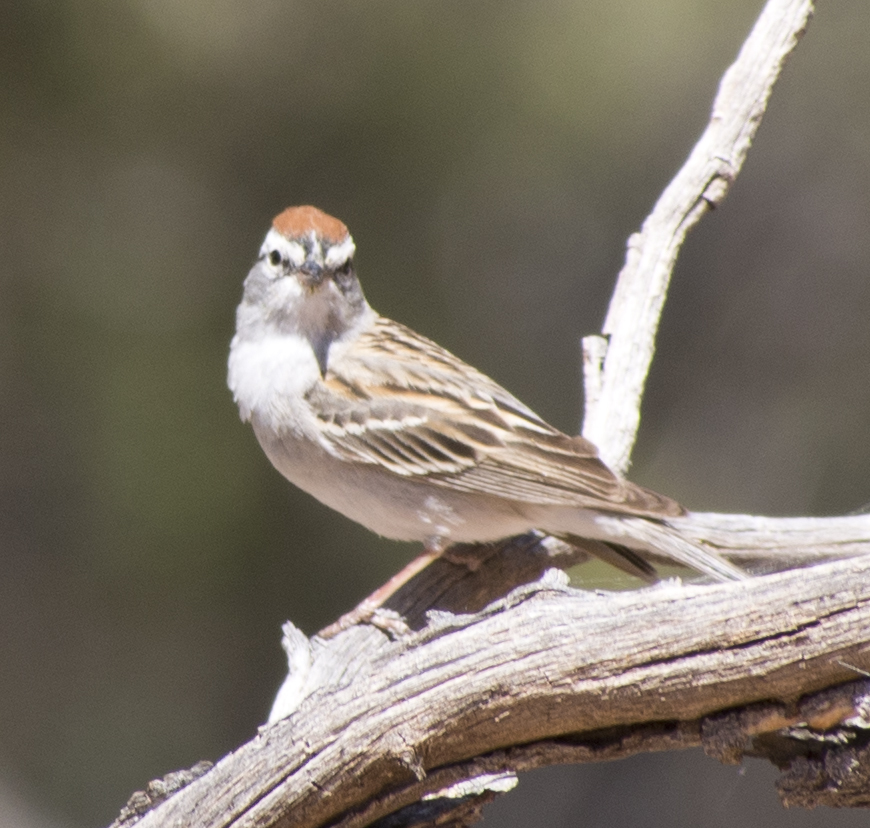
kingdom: Animalia
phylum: Chordata
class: Aves
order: Passeriformes
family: Passerellidae
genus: Spizella
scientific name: Spizella passerina
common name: Chipping sparrow
